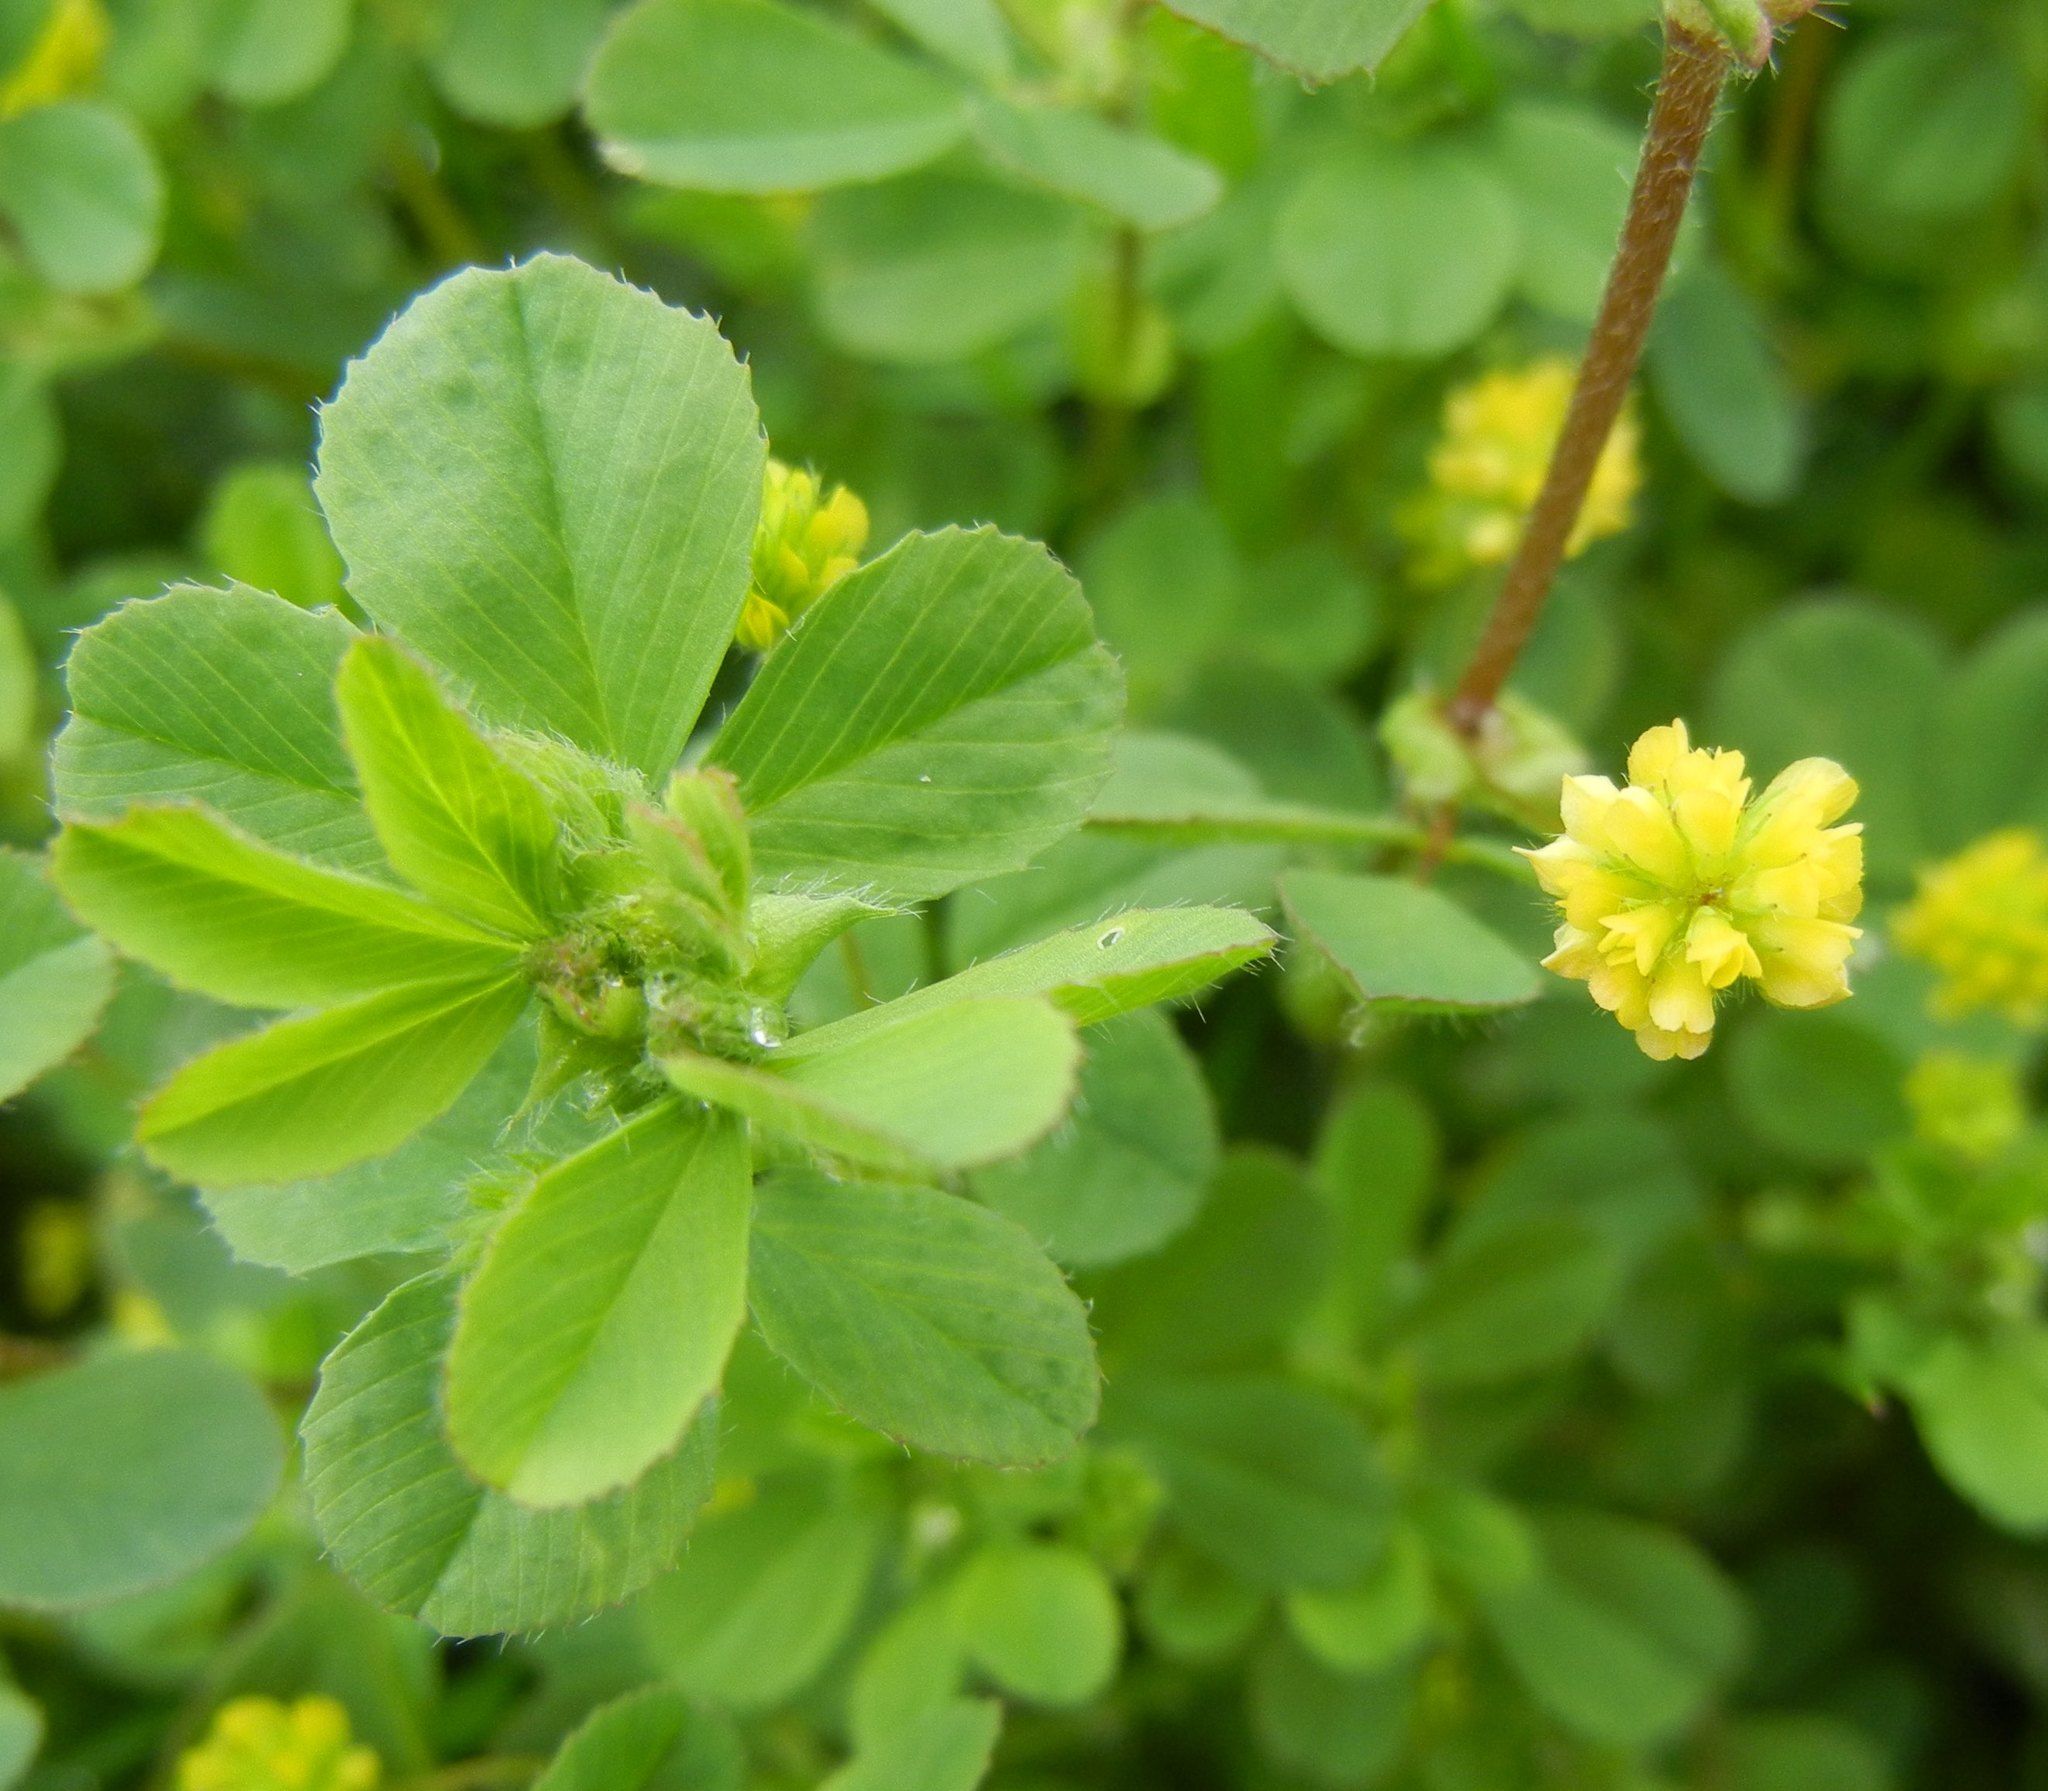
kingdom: Plantae
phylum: Tracheophyta
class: Magnoliopsida
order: Fabales
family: Fabaceae
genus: Trifolium
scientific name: Trifolium dubium
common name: Suckling clover
